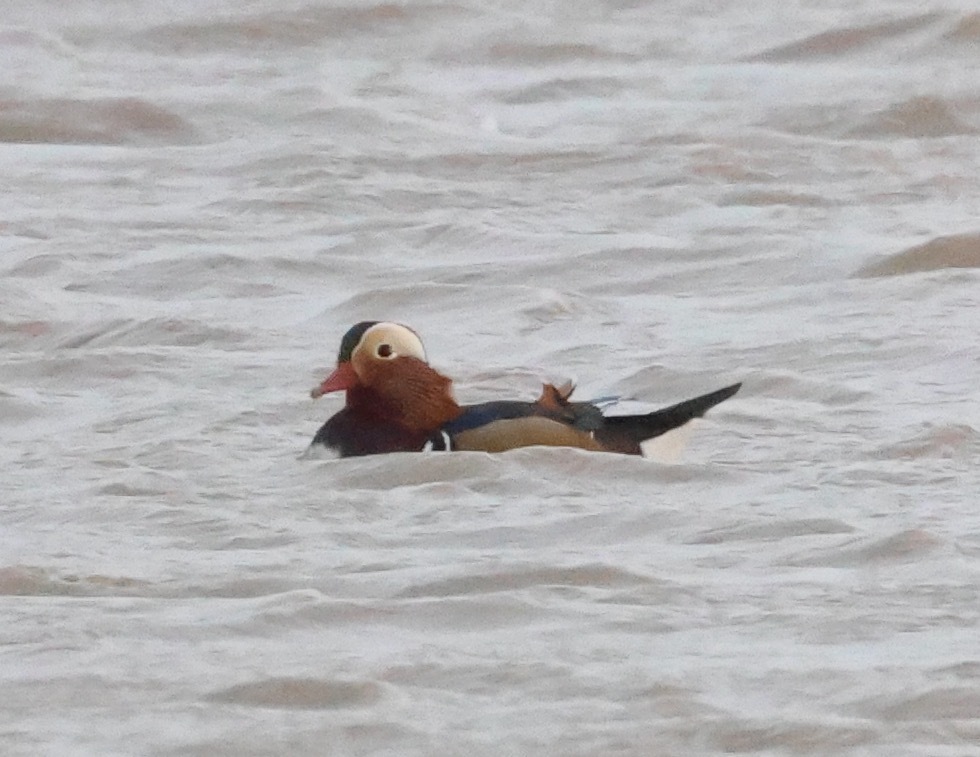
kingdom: Animalia
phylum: Chordata
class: Aves
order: Anseriformes
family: Anatidae
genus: Aix
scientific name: Aix galericulata
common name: Mandarin duck
